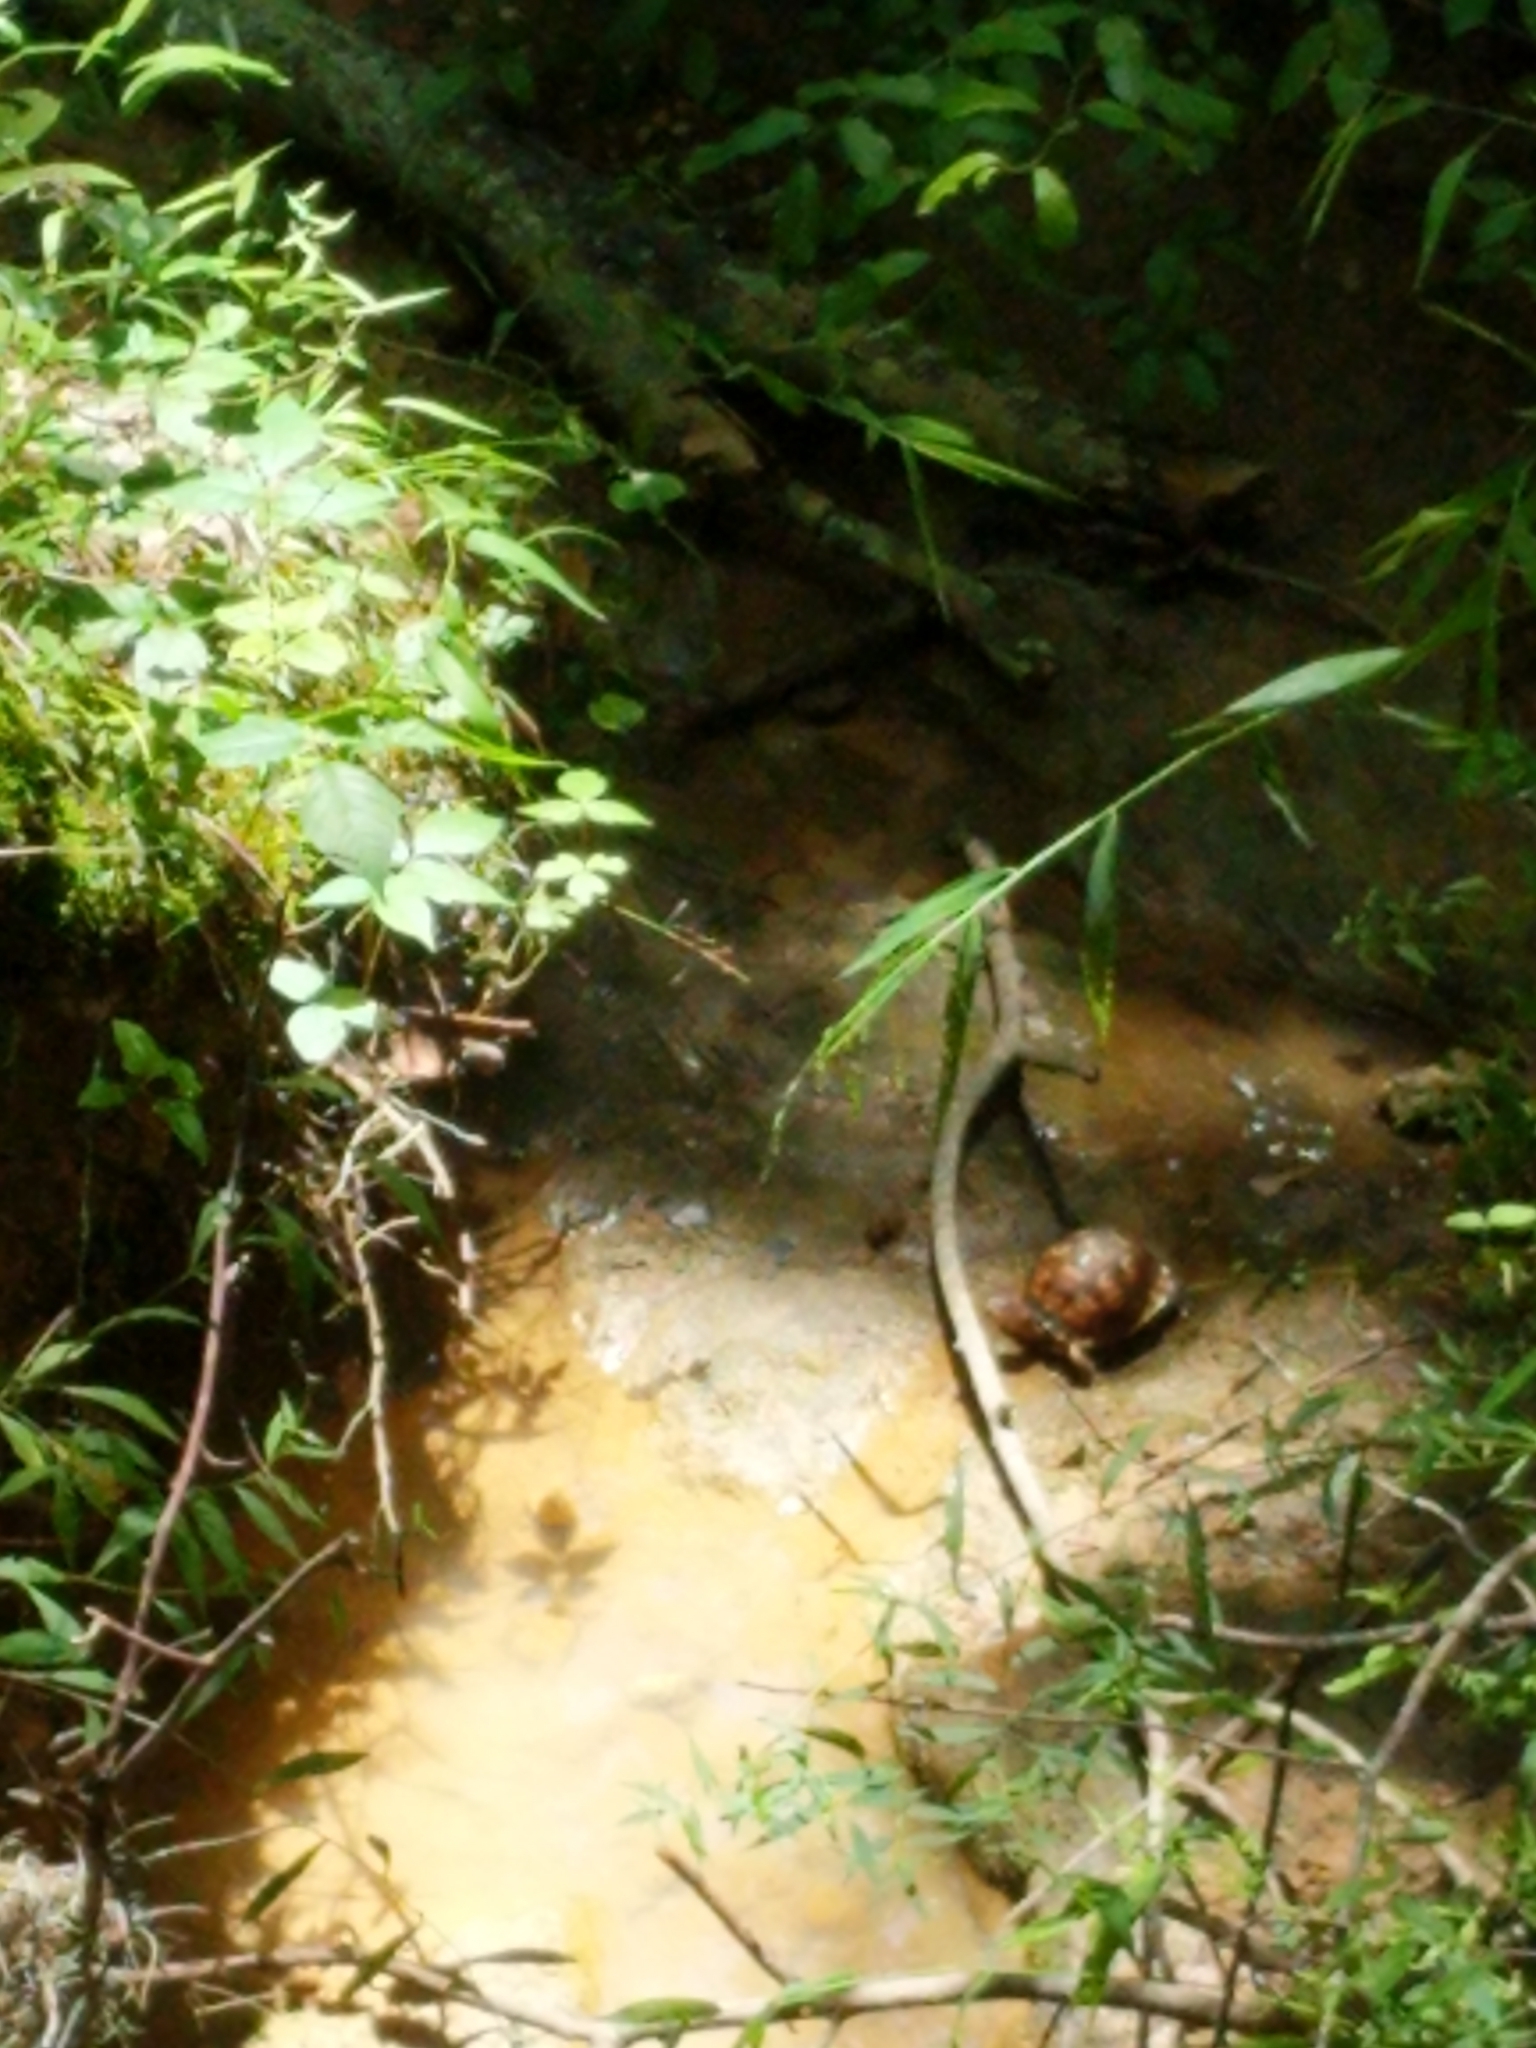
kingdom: Animalia
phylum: Chordata
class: Testudines
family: Emydidae
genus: Terrapene
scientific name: Terrapene carolina
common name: Common box turtle
